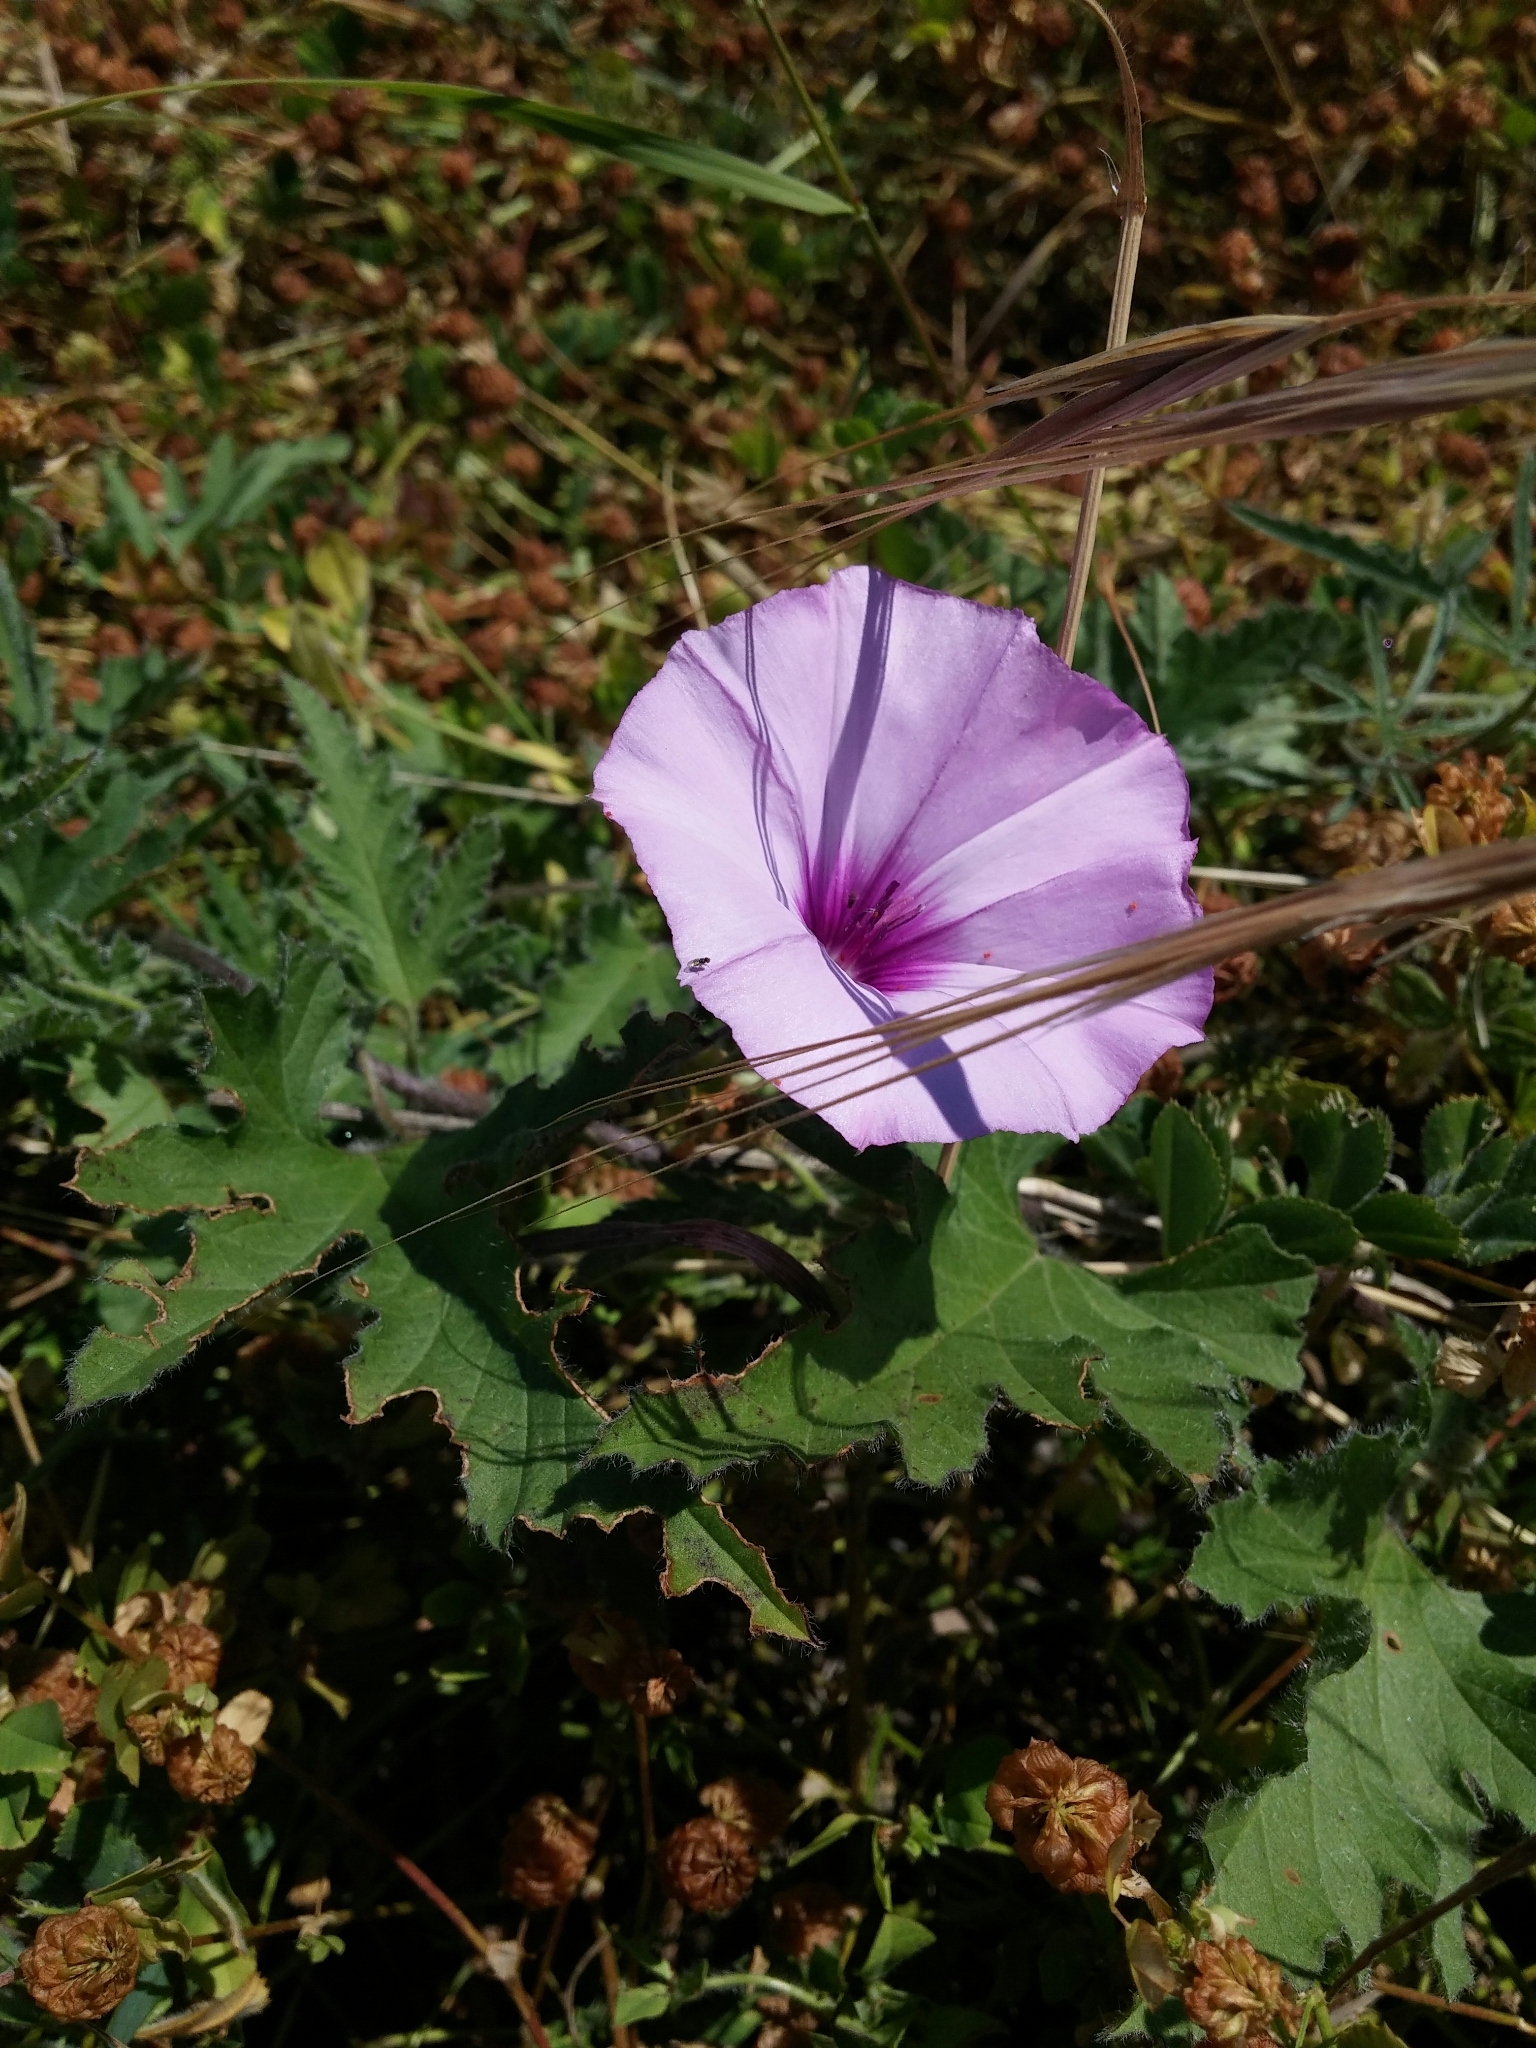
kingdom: Plantae
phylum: Tracheophyta
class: Magnoliopsida
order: Solanales
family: Convolvulaceae
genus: Convolvulus
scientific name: Convolvulus althaeoides
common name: Mallow bindweed
